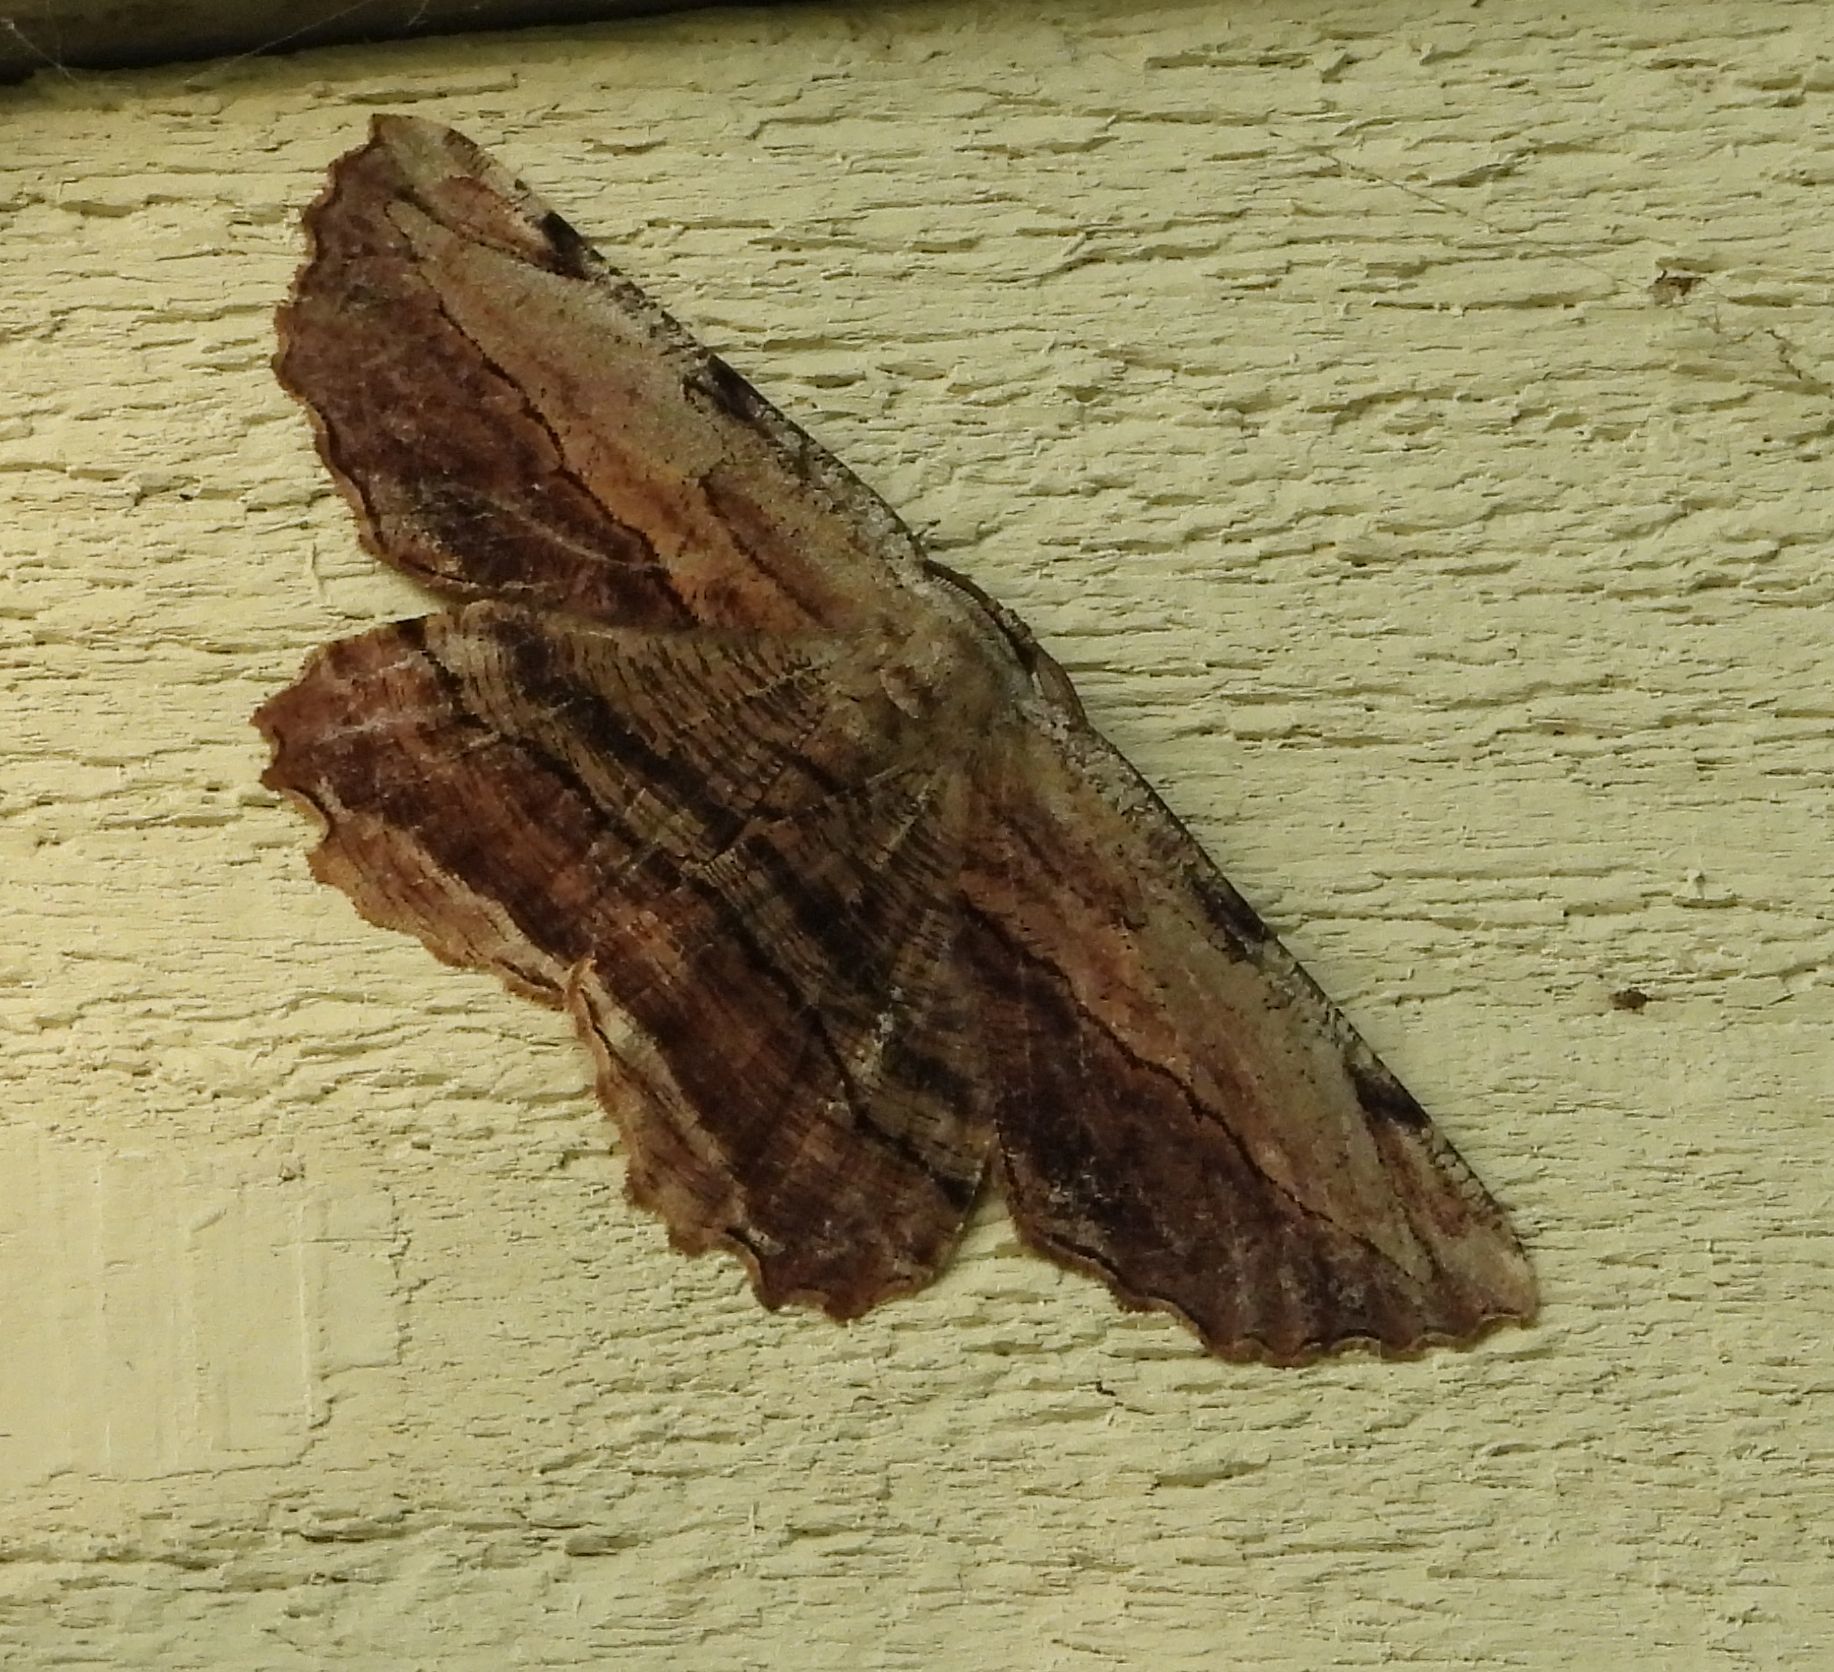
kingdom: Animalia
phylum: Arthropoda
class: Insecta
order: Lepidoptera
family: Geometridae
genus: Lytrosis
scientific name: Lytrosis unitaria
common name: Common lytrosis
